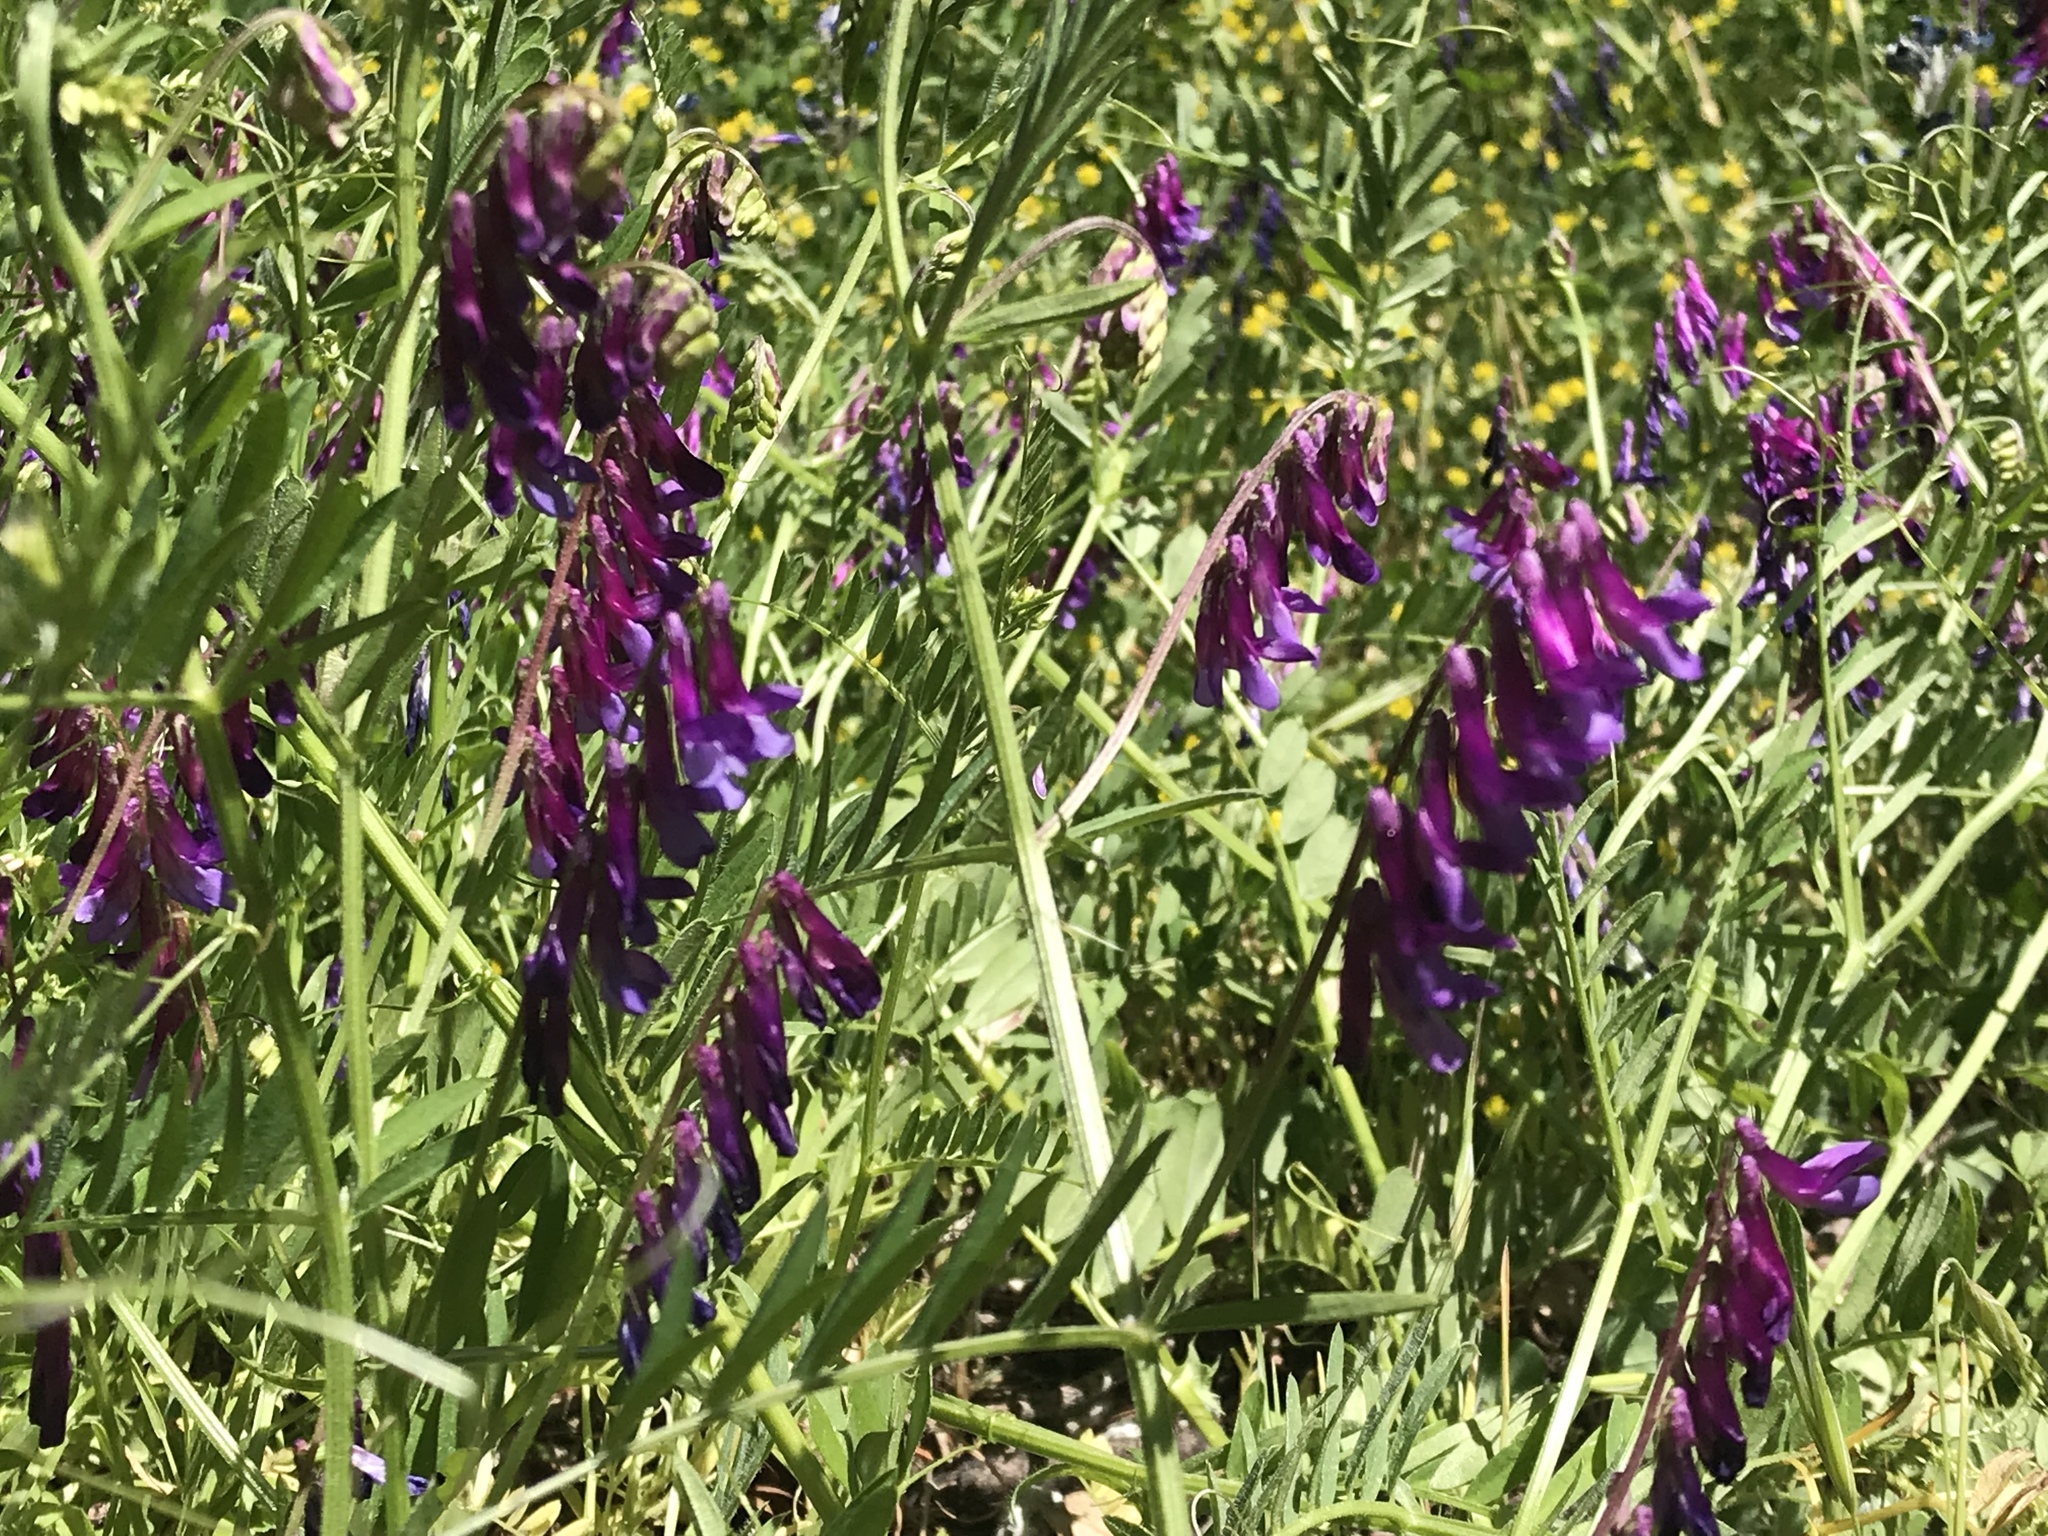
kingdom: Plantae
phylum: Tracheophyta
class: Magnoliopsida
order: Fabales
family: Fabaceae
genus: Vicia
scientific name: Vicia villosa
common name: Fodder vetch
